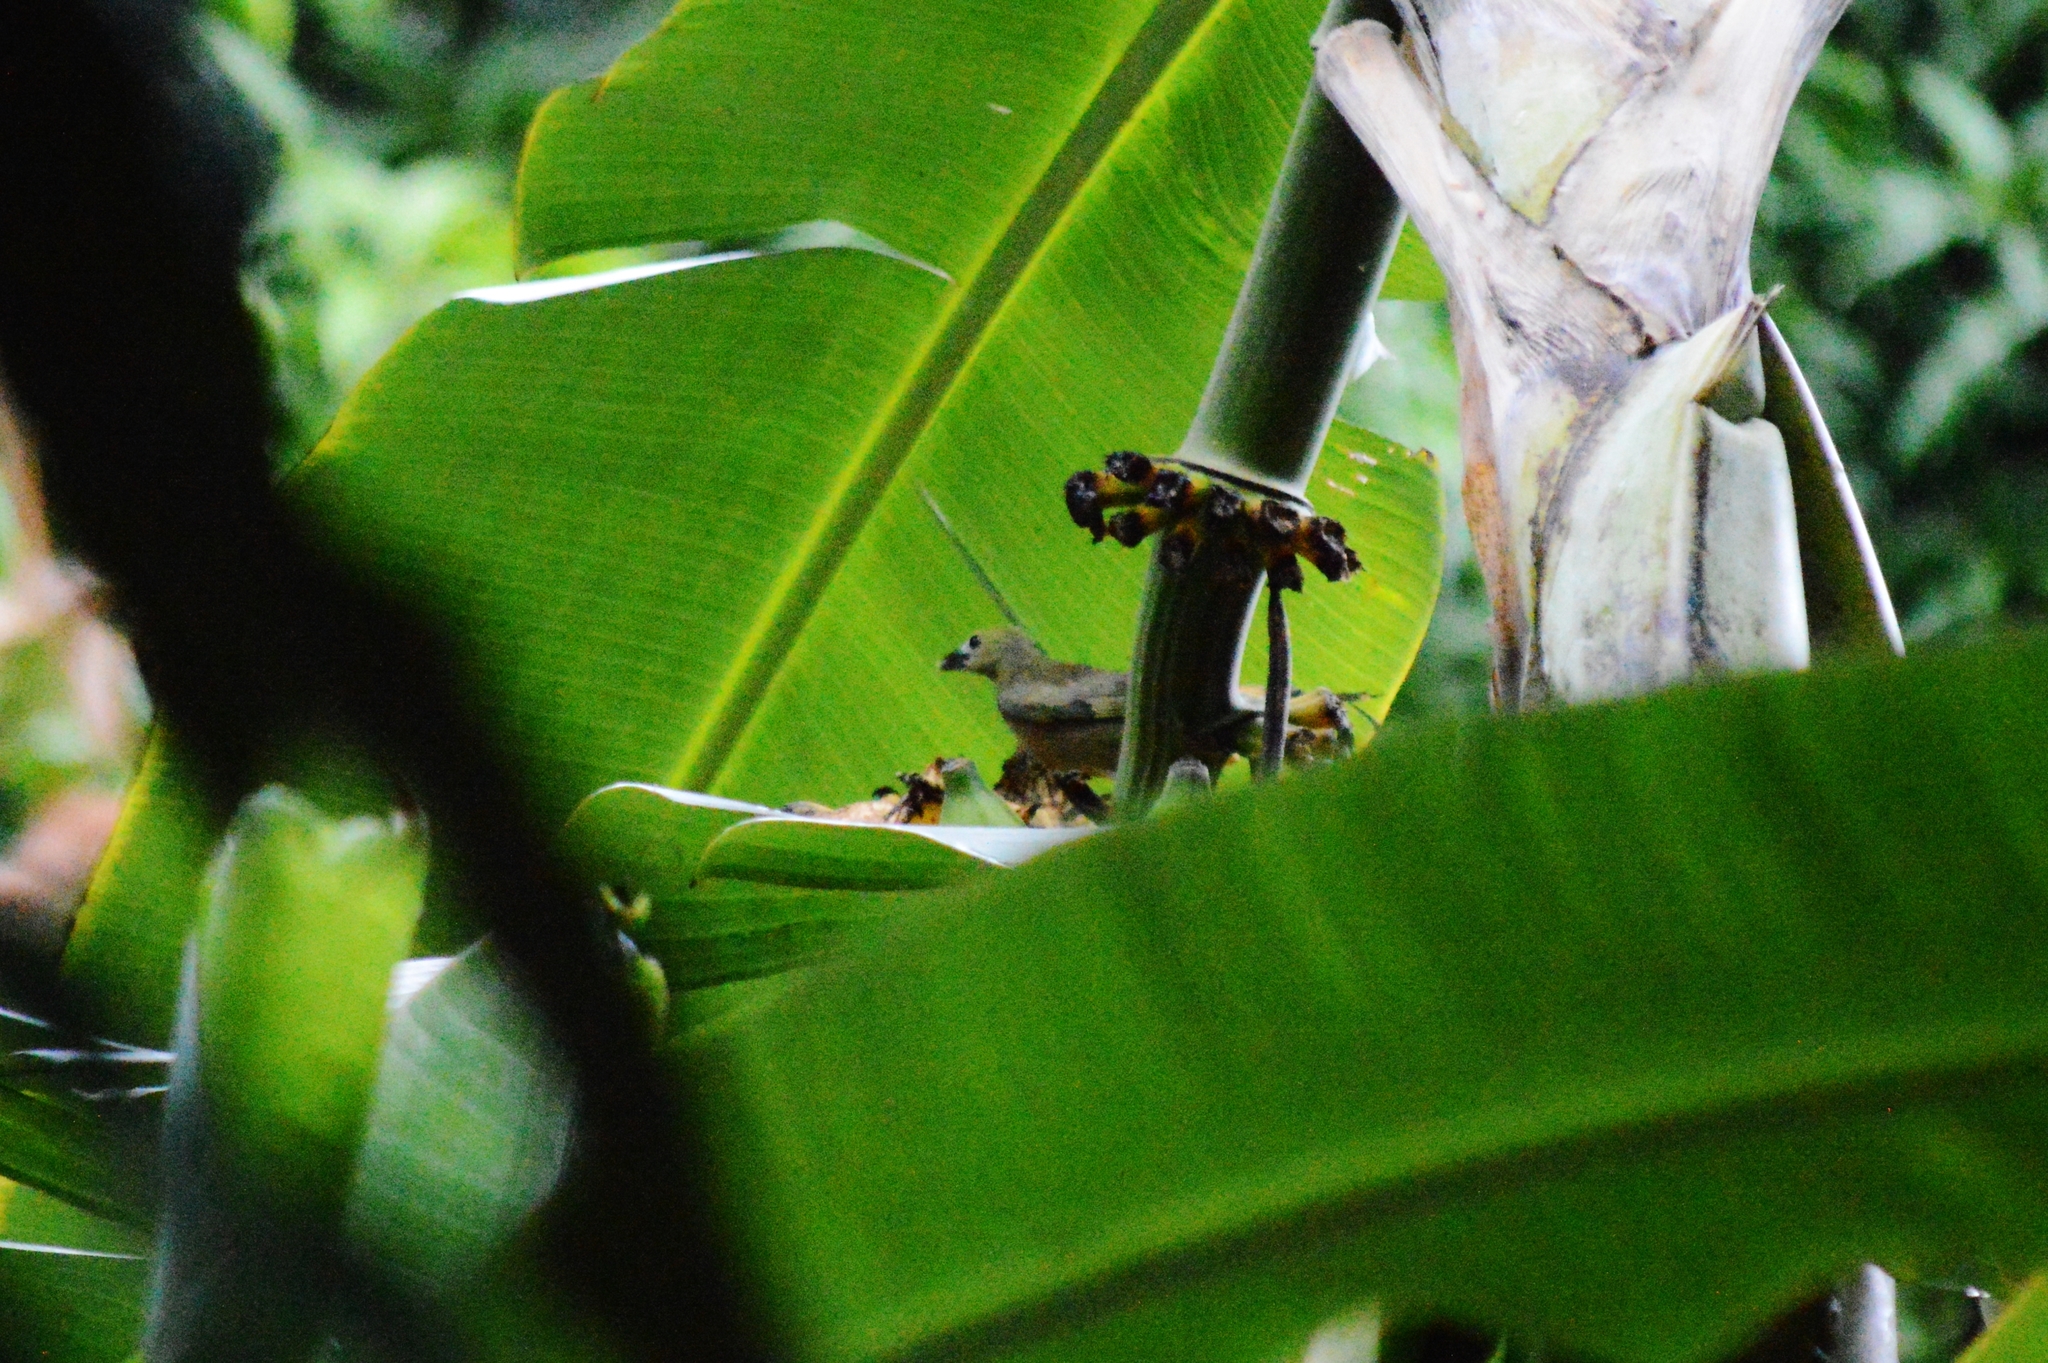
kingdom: Animalia
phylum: Chordata
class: Aves
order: Passeriformes
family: Thraupidae
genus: Thraupis
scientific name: Thraupis palmarum
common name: Palm tanager
